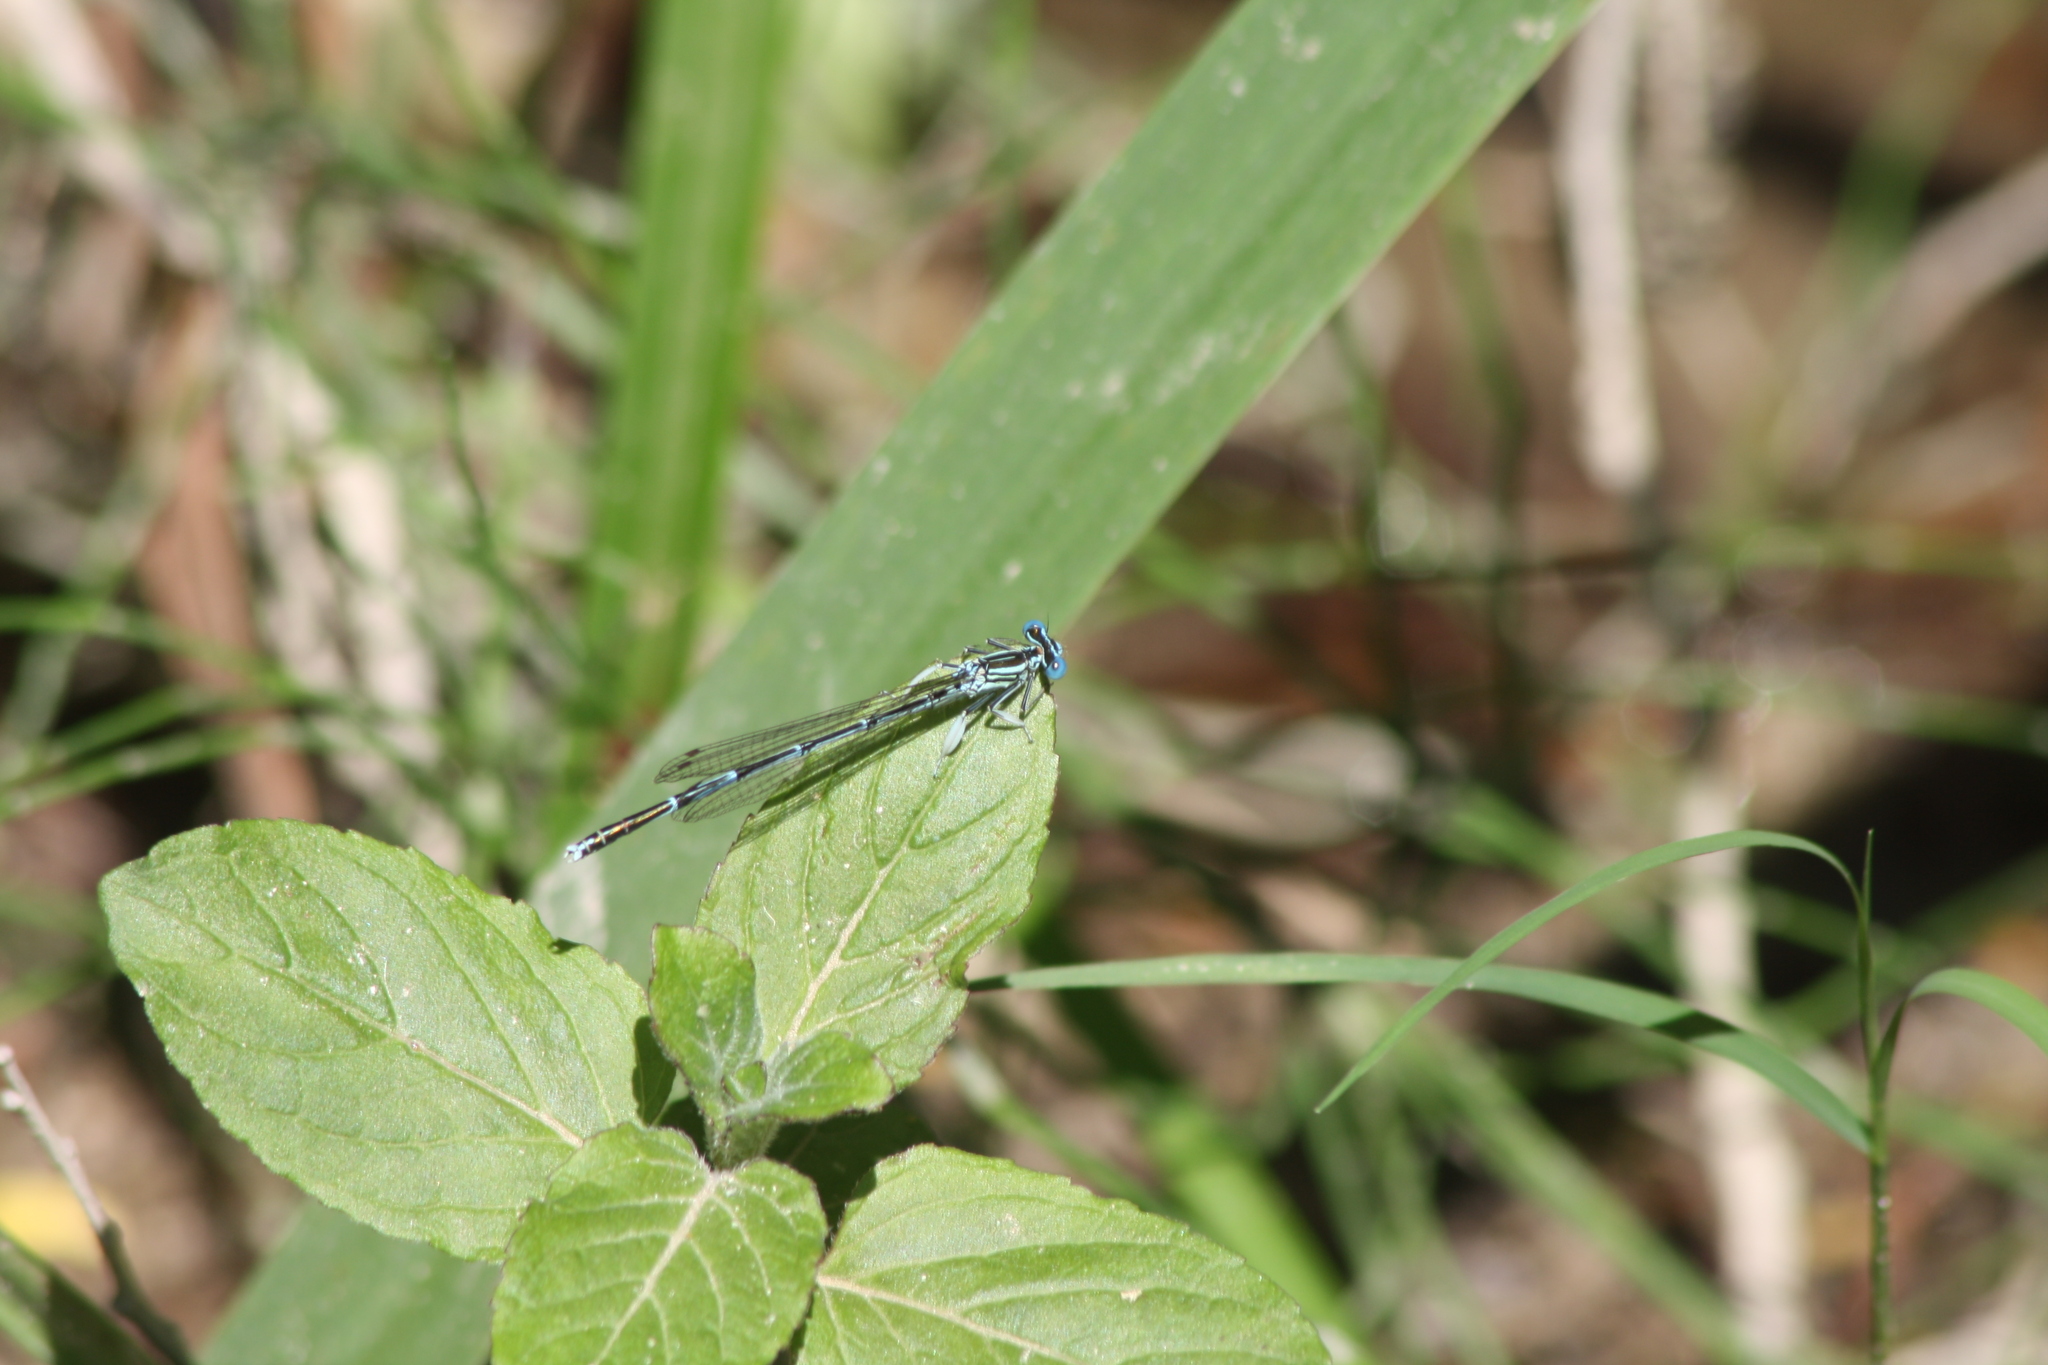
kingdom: Animalia
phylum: Arthropoda
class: Insecta
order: Odonata
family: Platycnemididae
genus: Platycnemis
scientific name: Platycnemis pennipes
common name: White-legged damselfly
